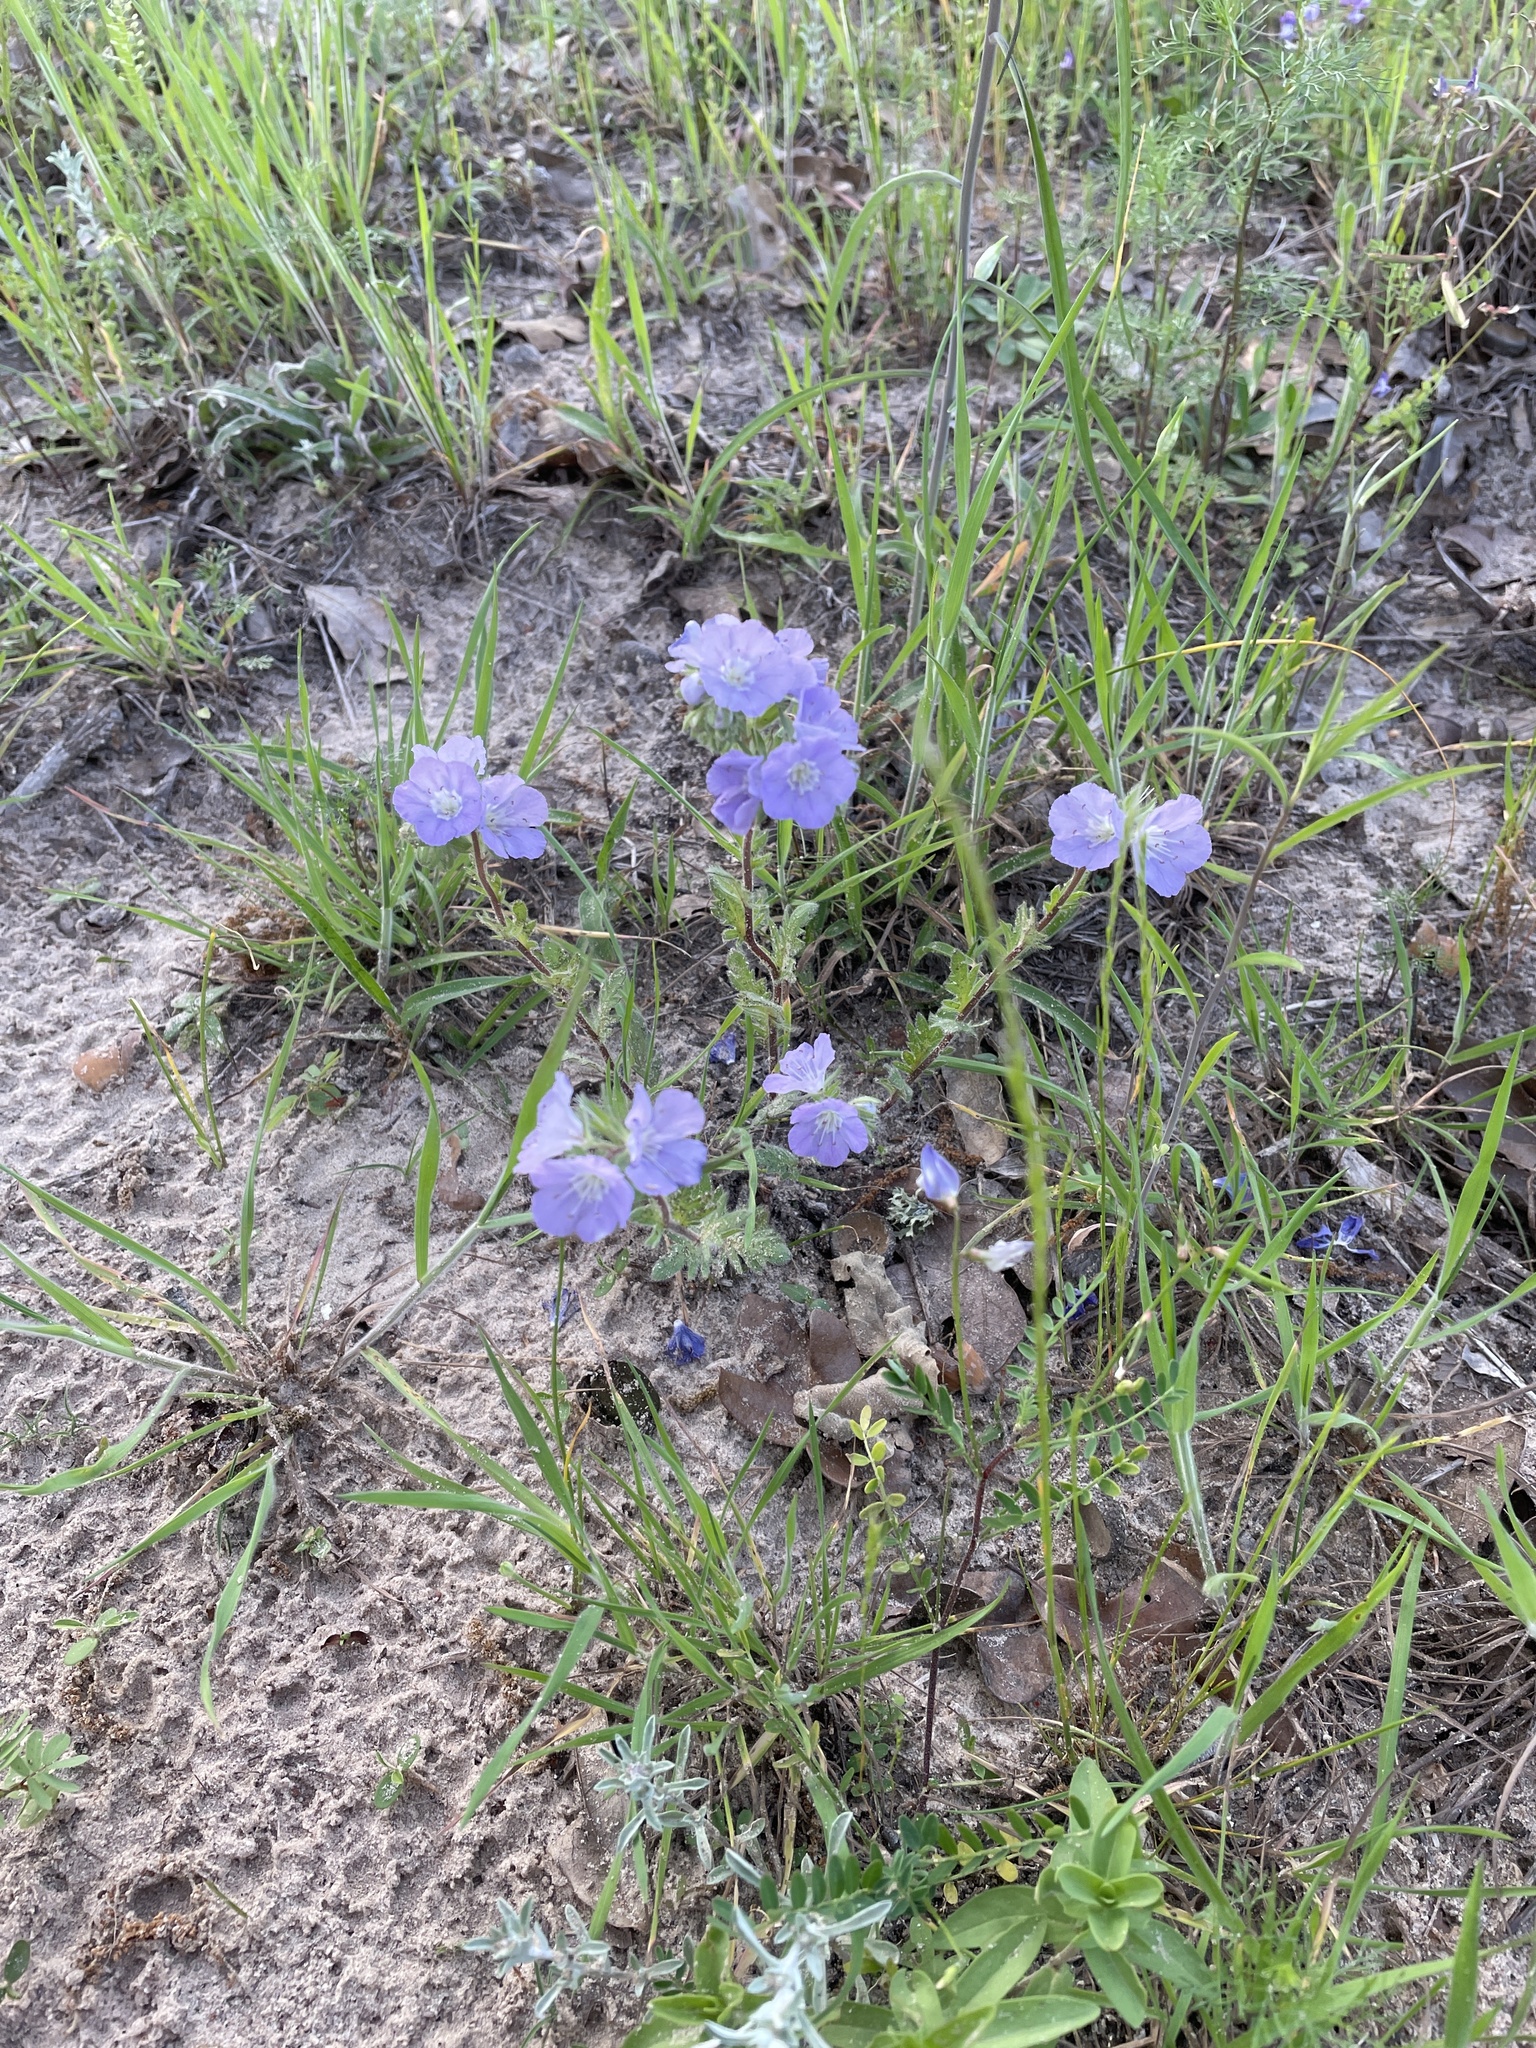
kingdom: Plantae
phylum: Tracheophyta
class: Magnoliopsida
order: Boraginales
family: Hydrophyllaceae
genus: Phacelia
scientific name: Phacelia strictiflora
